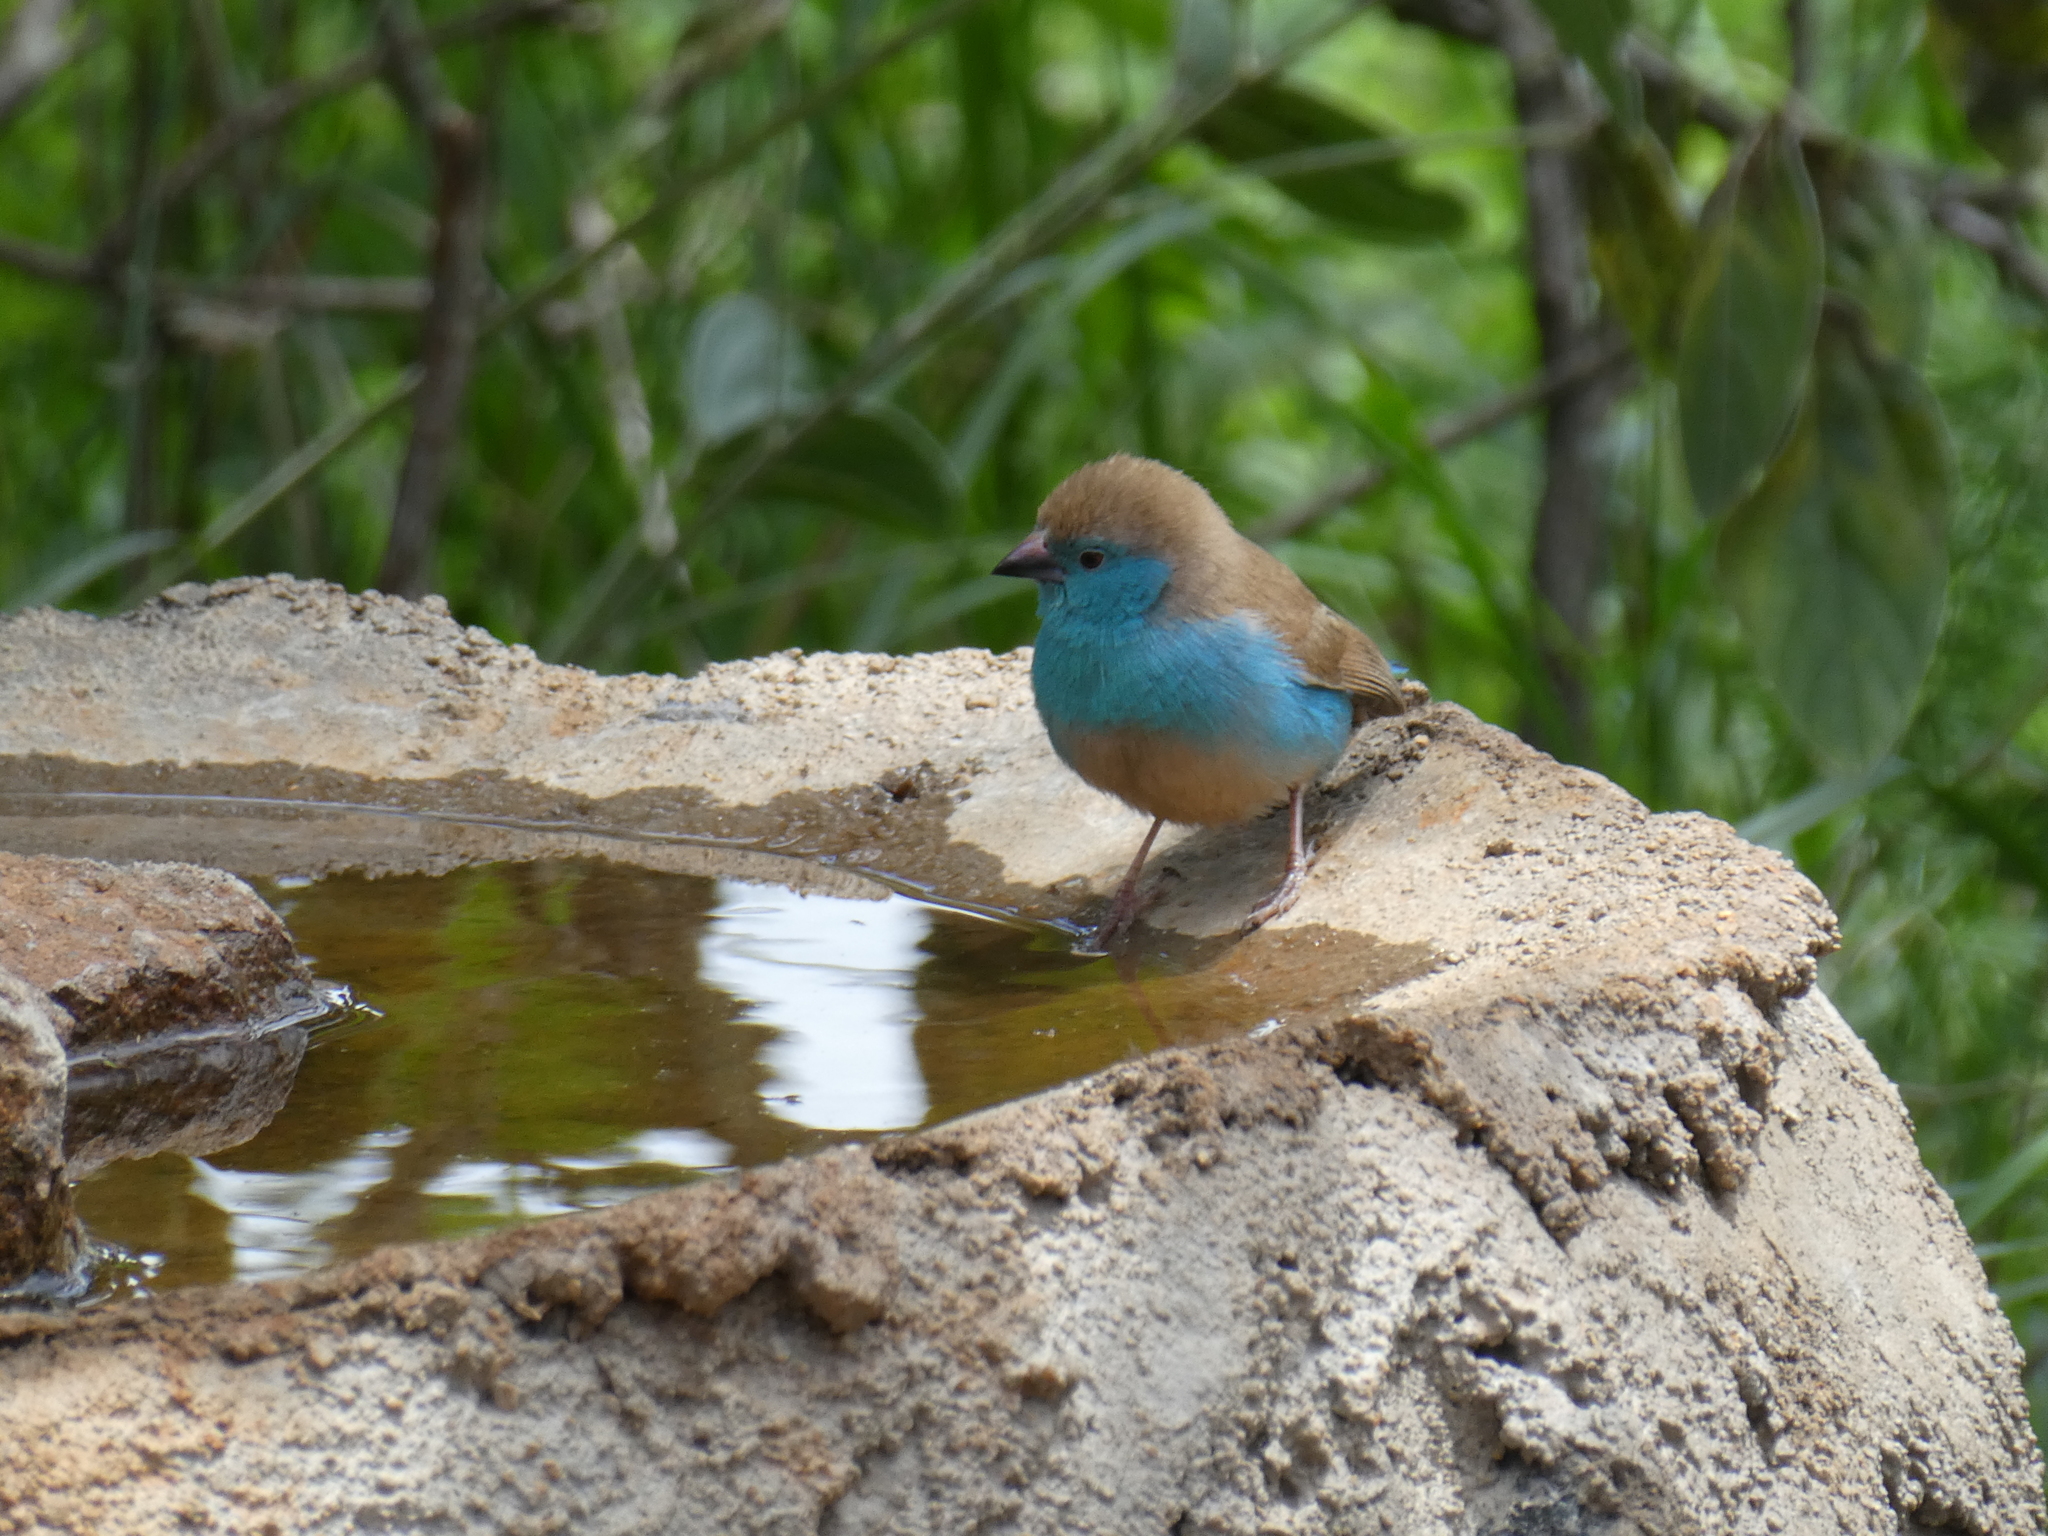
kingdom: Animalia
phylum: Chordata
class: Aves
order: Passeriformes
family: Estrildidae
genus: Uraeginthus
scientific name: Uraeginthus angolensis
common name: Blue waxbill
